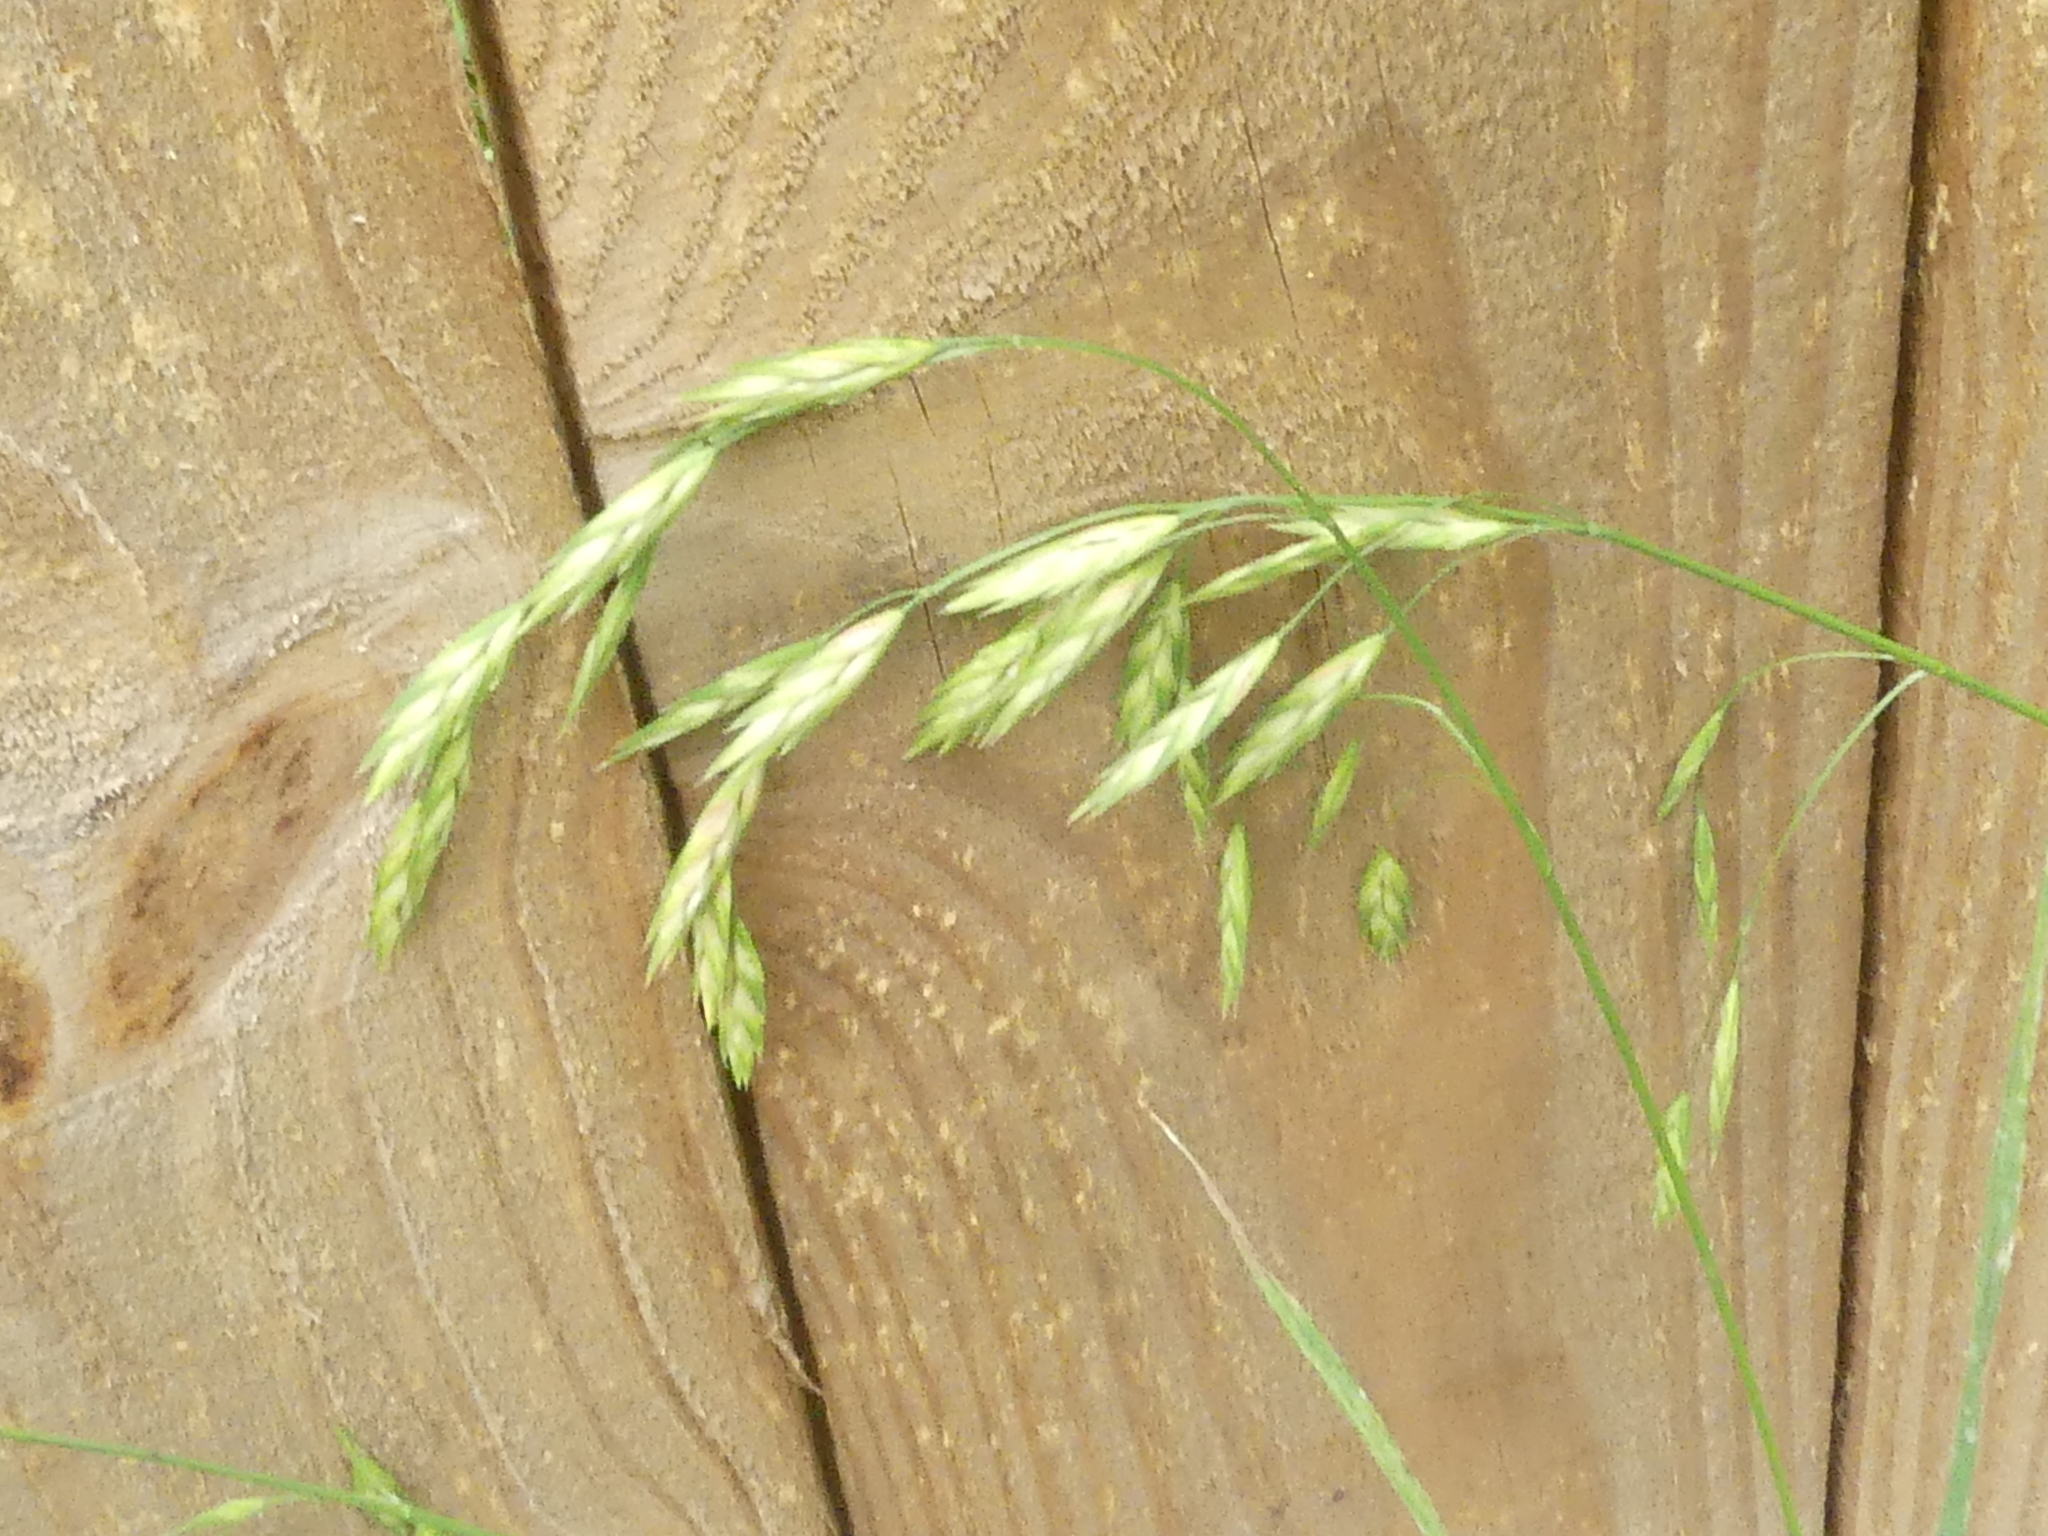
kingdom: Plantae
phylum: Tracheophyta
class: Liliopsida
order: Poales
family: Poaceae
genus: Bromus
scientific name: Bromus catharticus
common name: Rescuegrass
